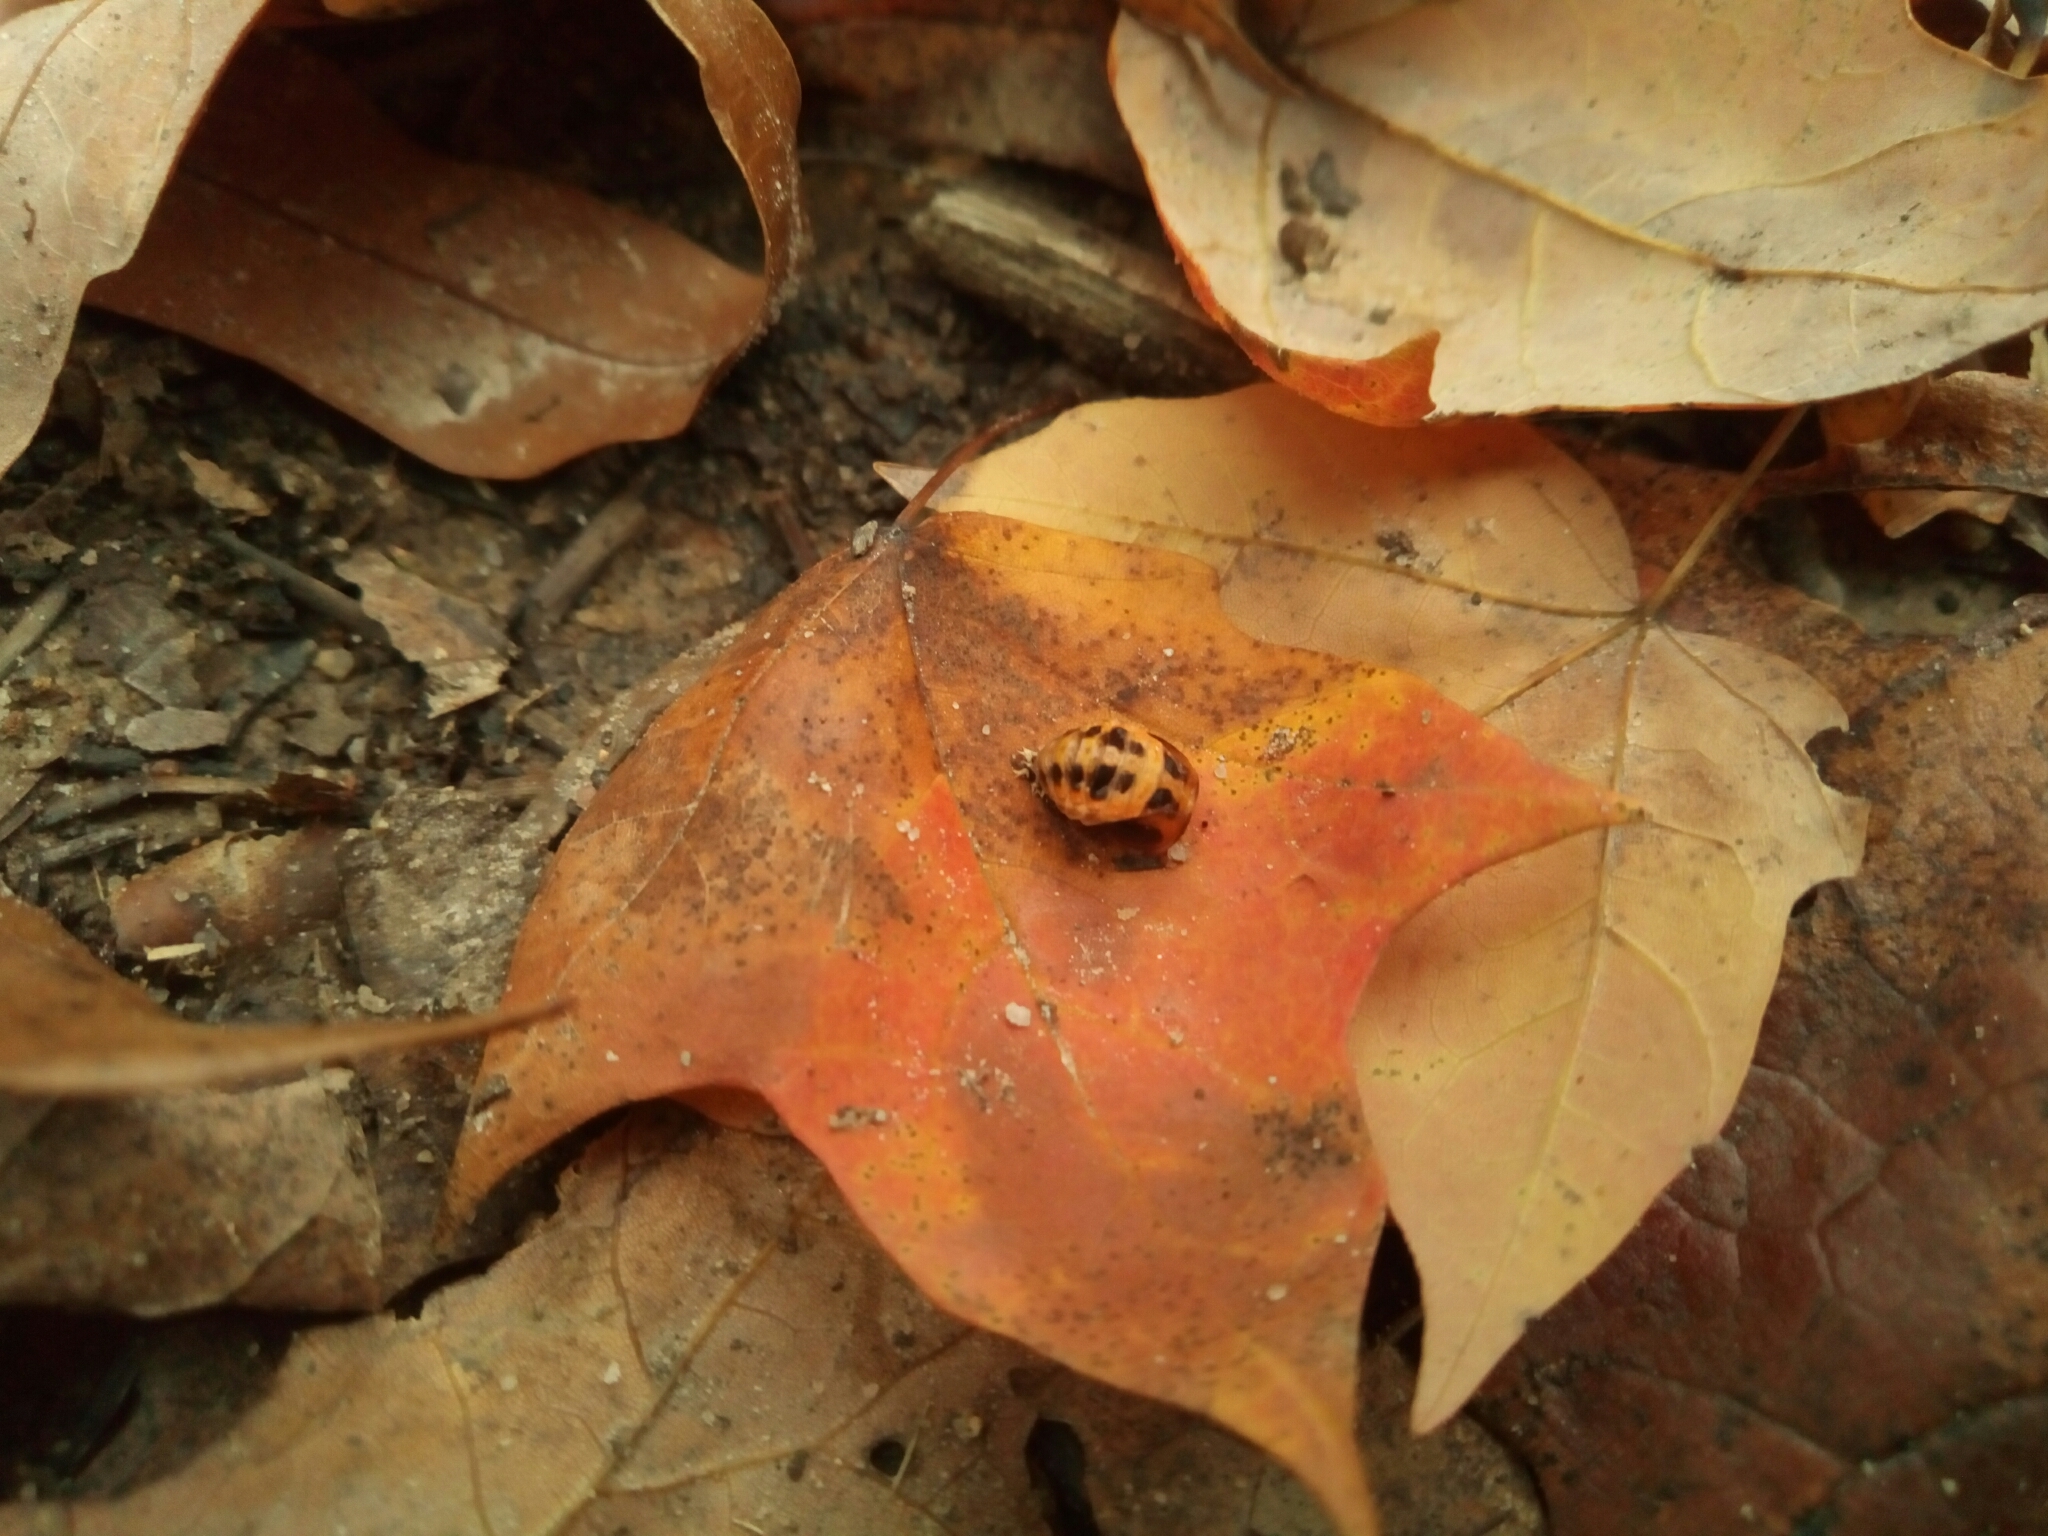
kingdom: Animalia
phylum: Arthropoda
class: Insecta
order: Coleoptera
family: Coccinellidae
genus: Harmonia
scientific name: Harmonia axyridis
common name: Harlequin ladybird
